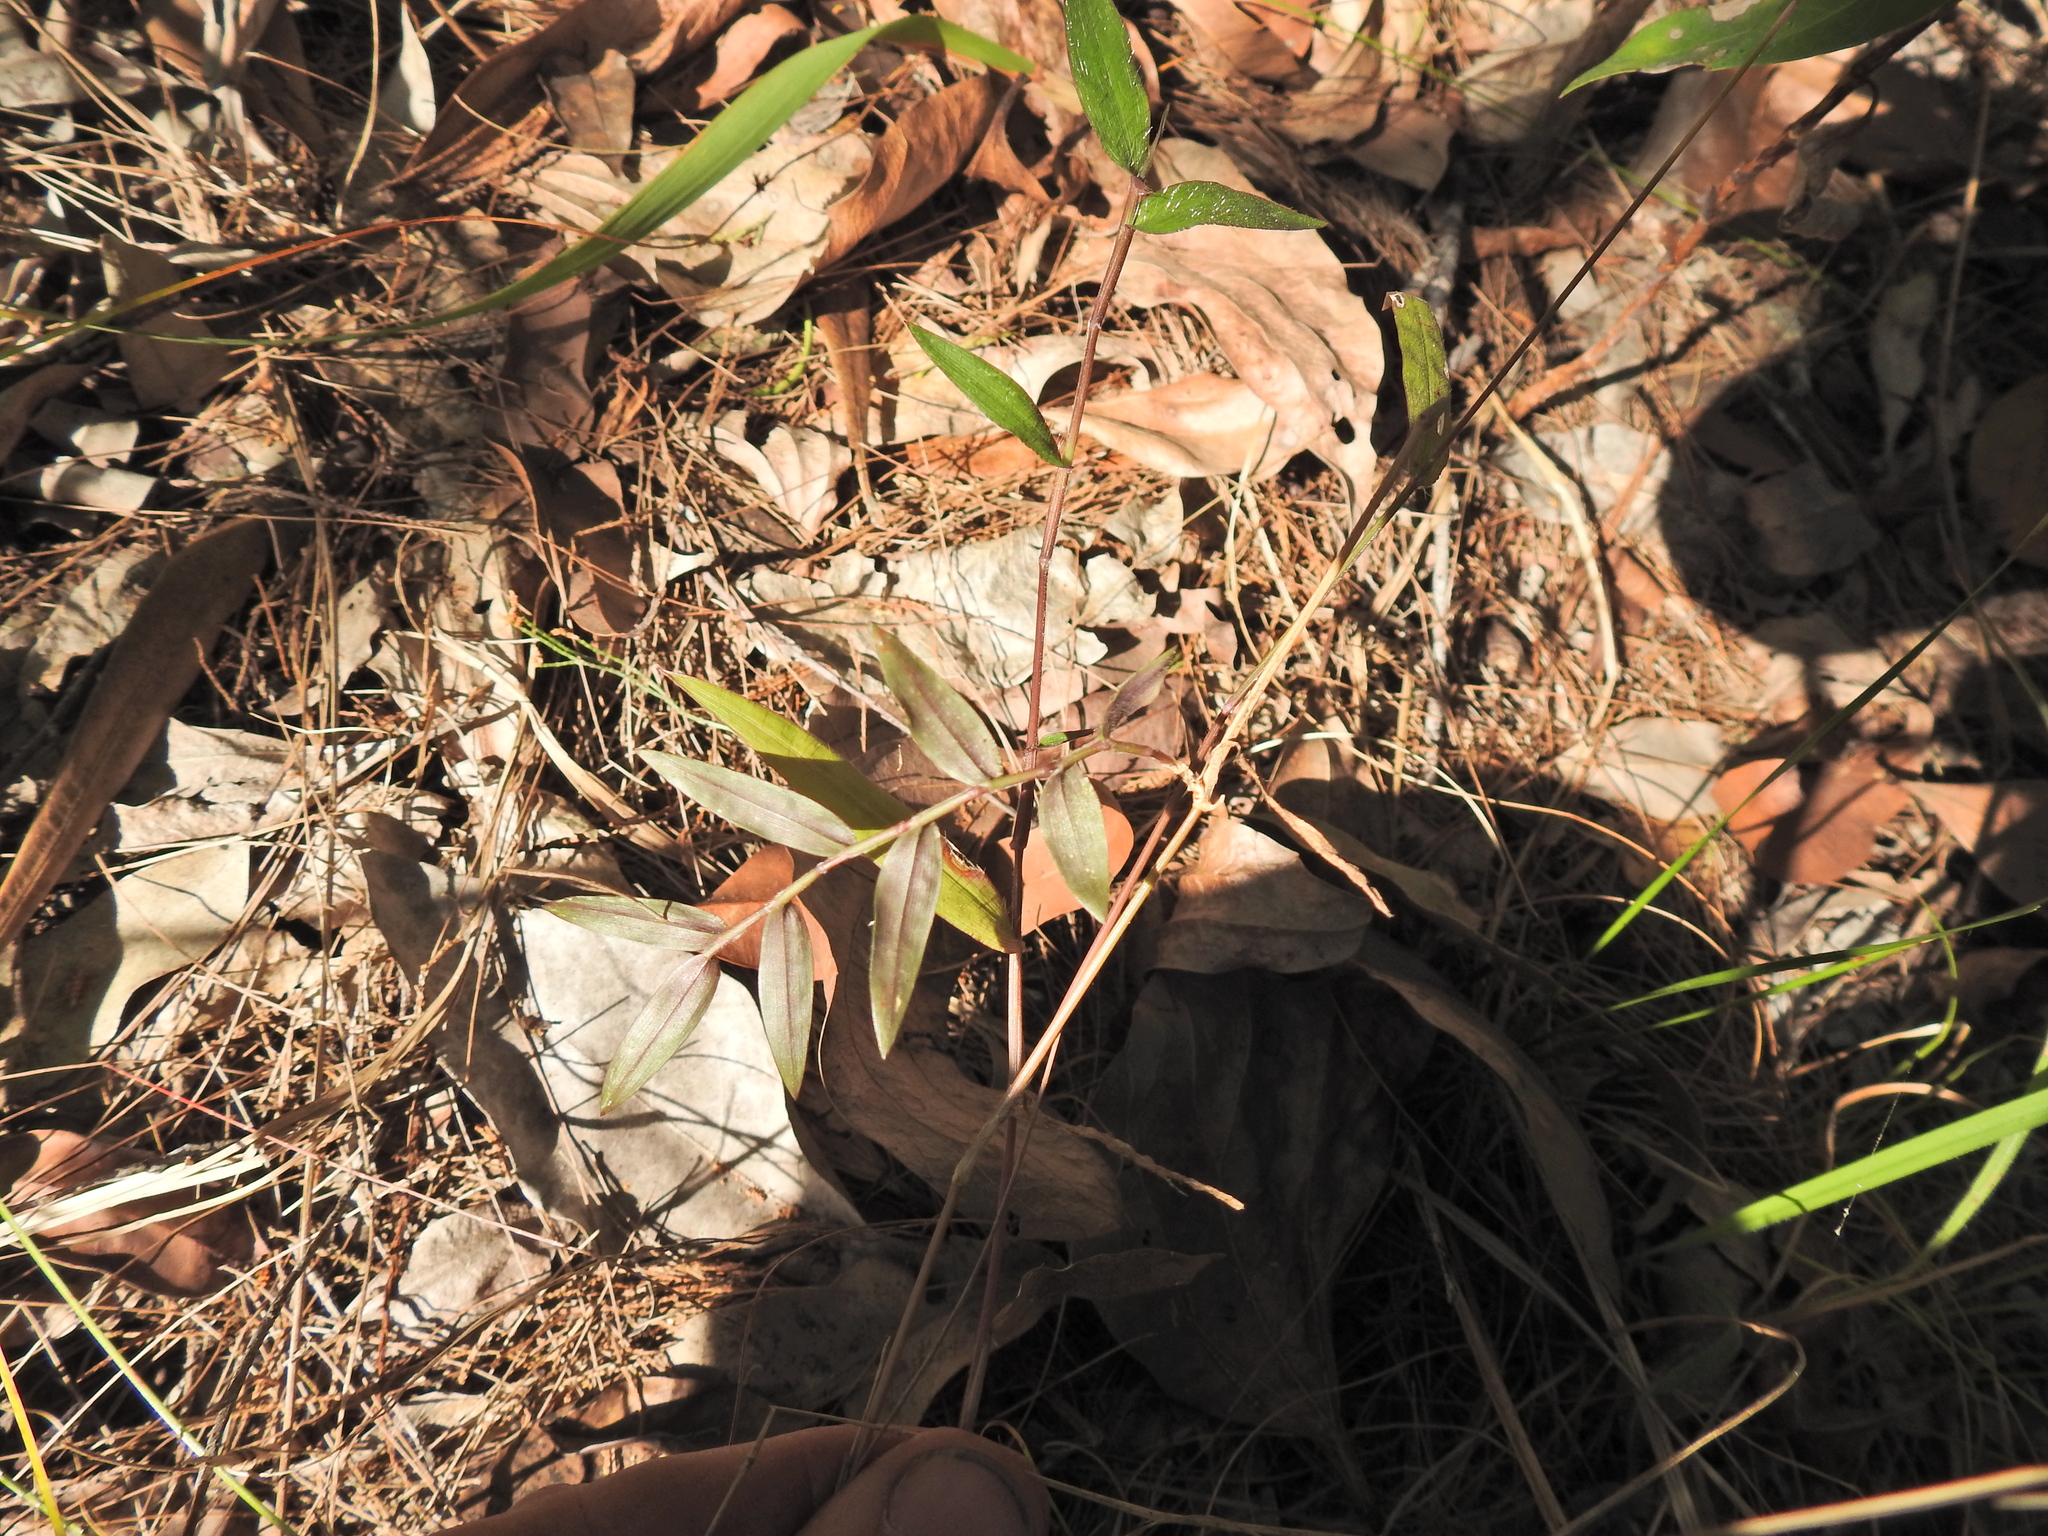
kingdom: Plantae
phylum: Tracheophyta
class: Liliopsida
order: Poales
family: Poaceae
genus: Oplismenus
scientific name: Oplismenus hirtellus
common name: Basketgrass
